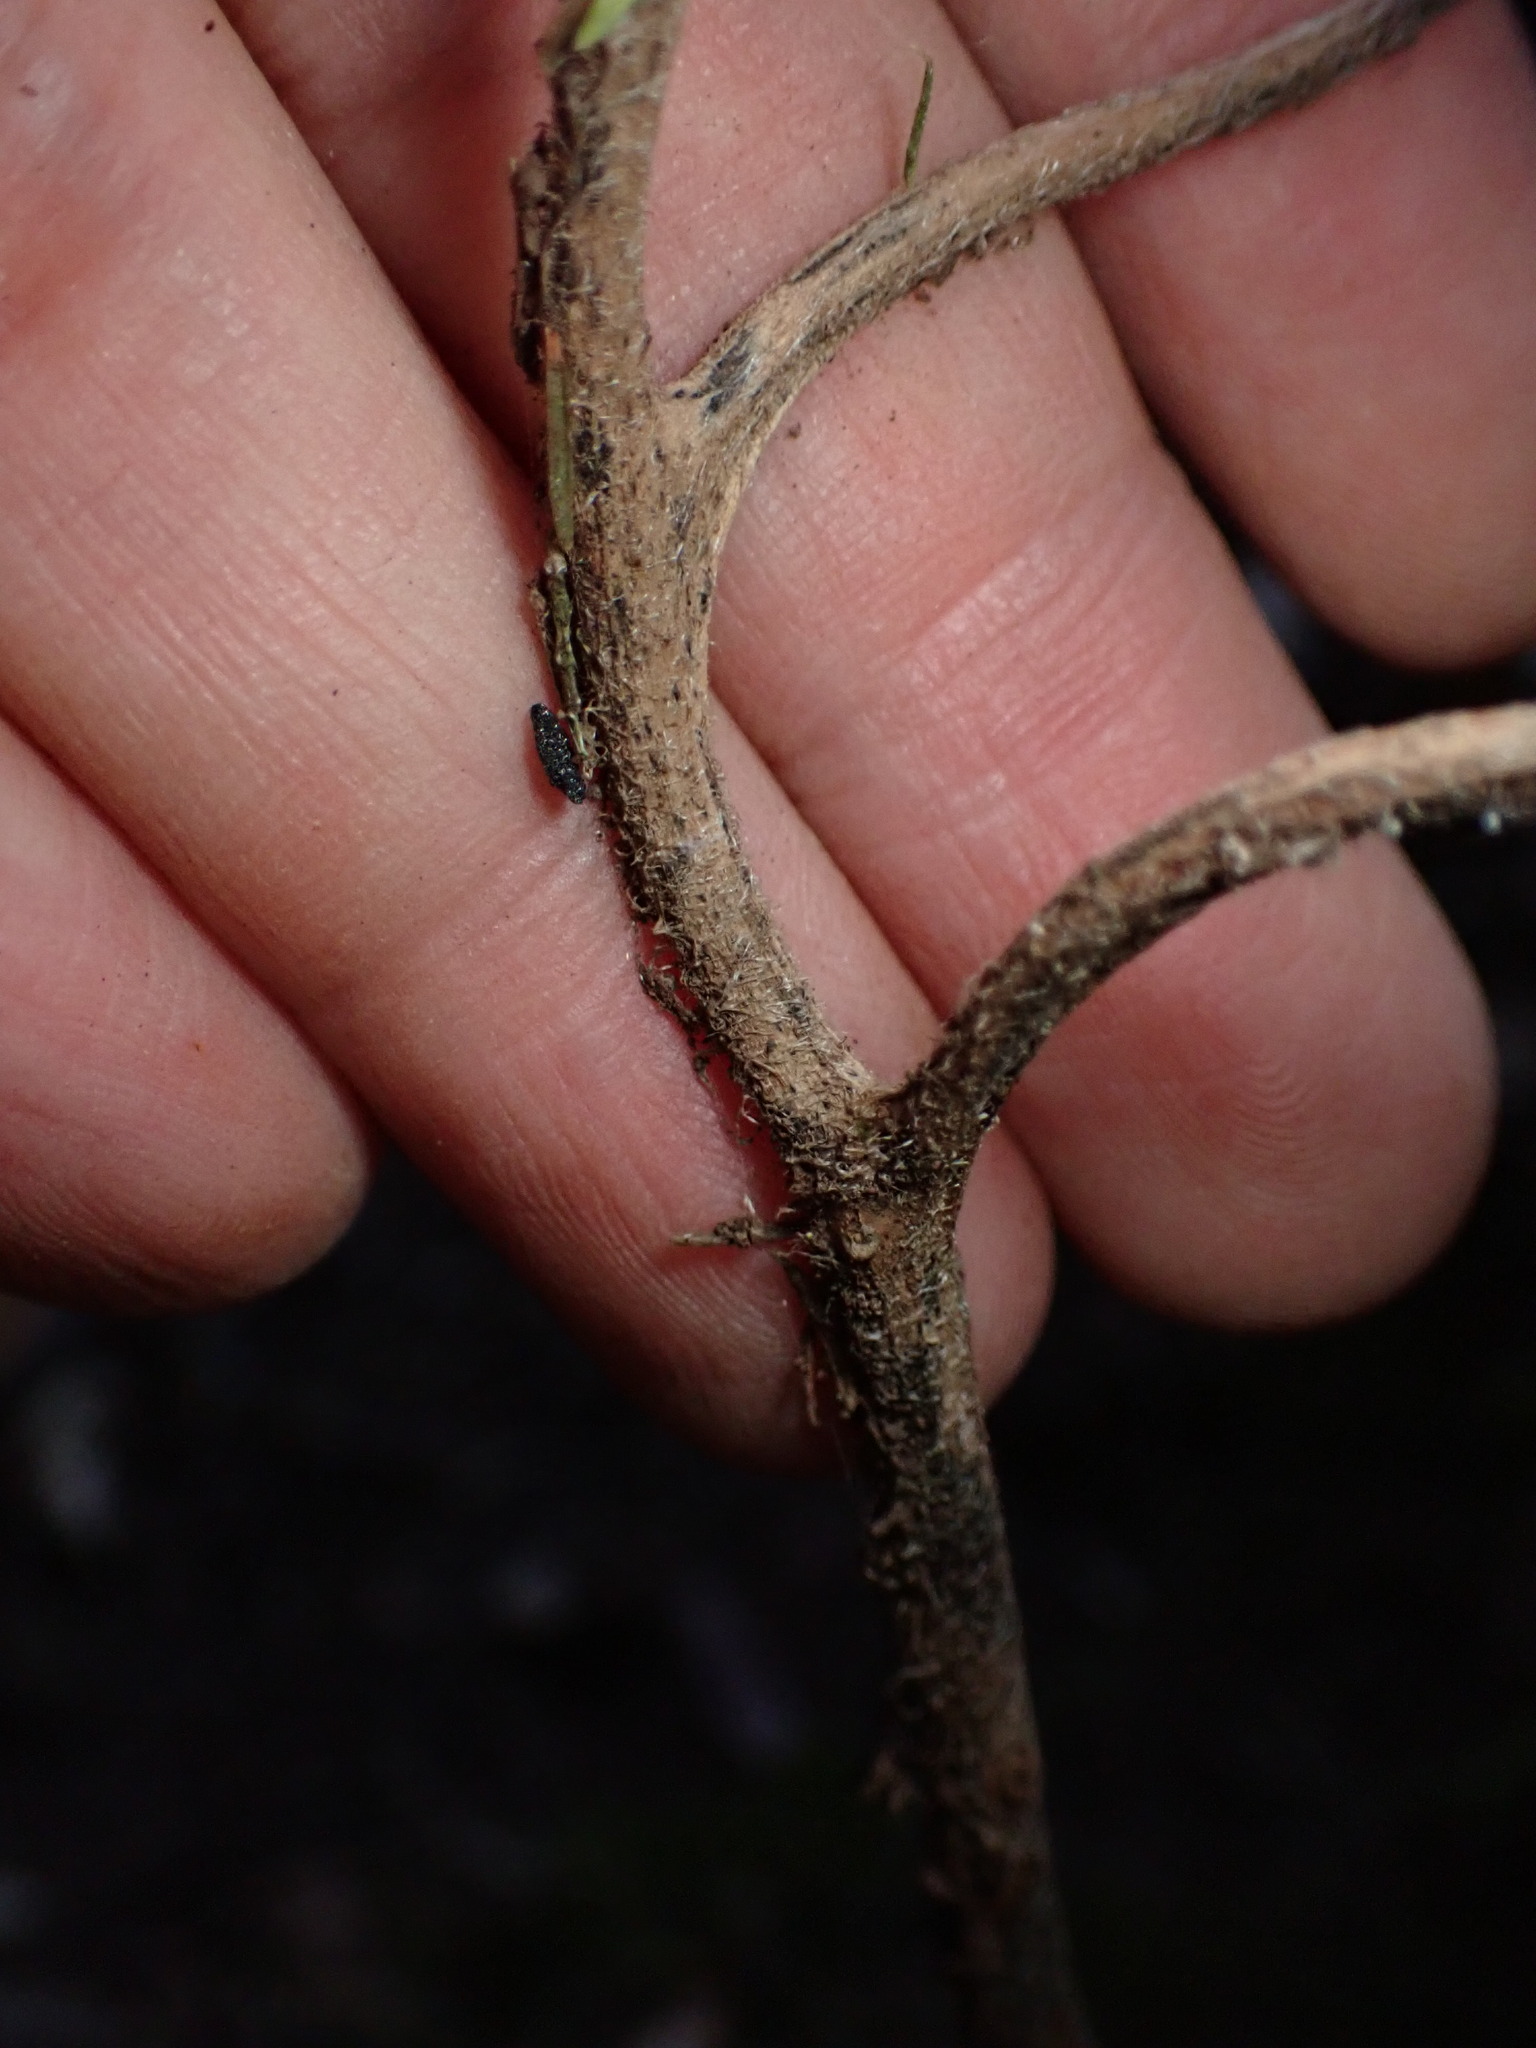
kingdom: Plantae
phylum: Tracheophyta
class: Magnoliopsida
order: Saxifragales
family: Crassulaceae
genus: Aichryson
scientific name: Aichryson laxum
